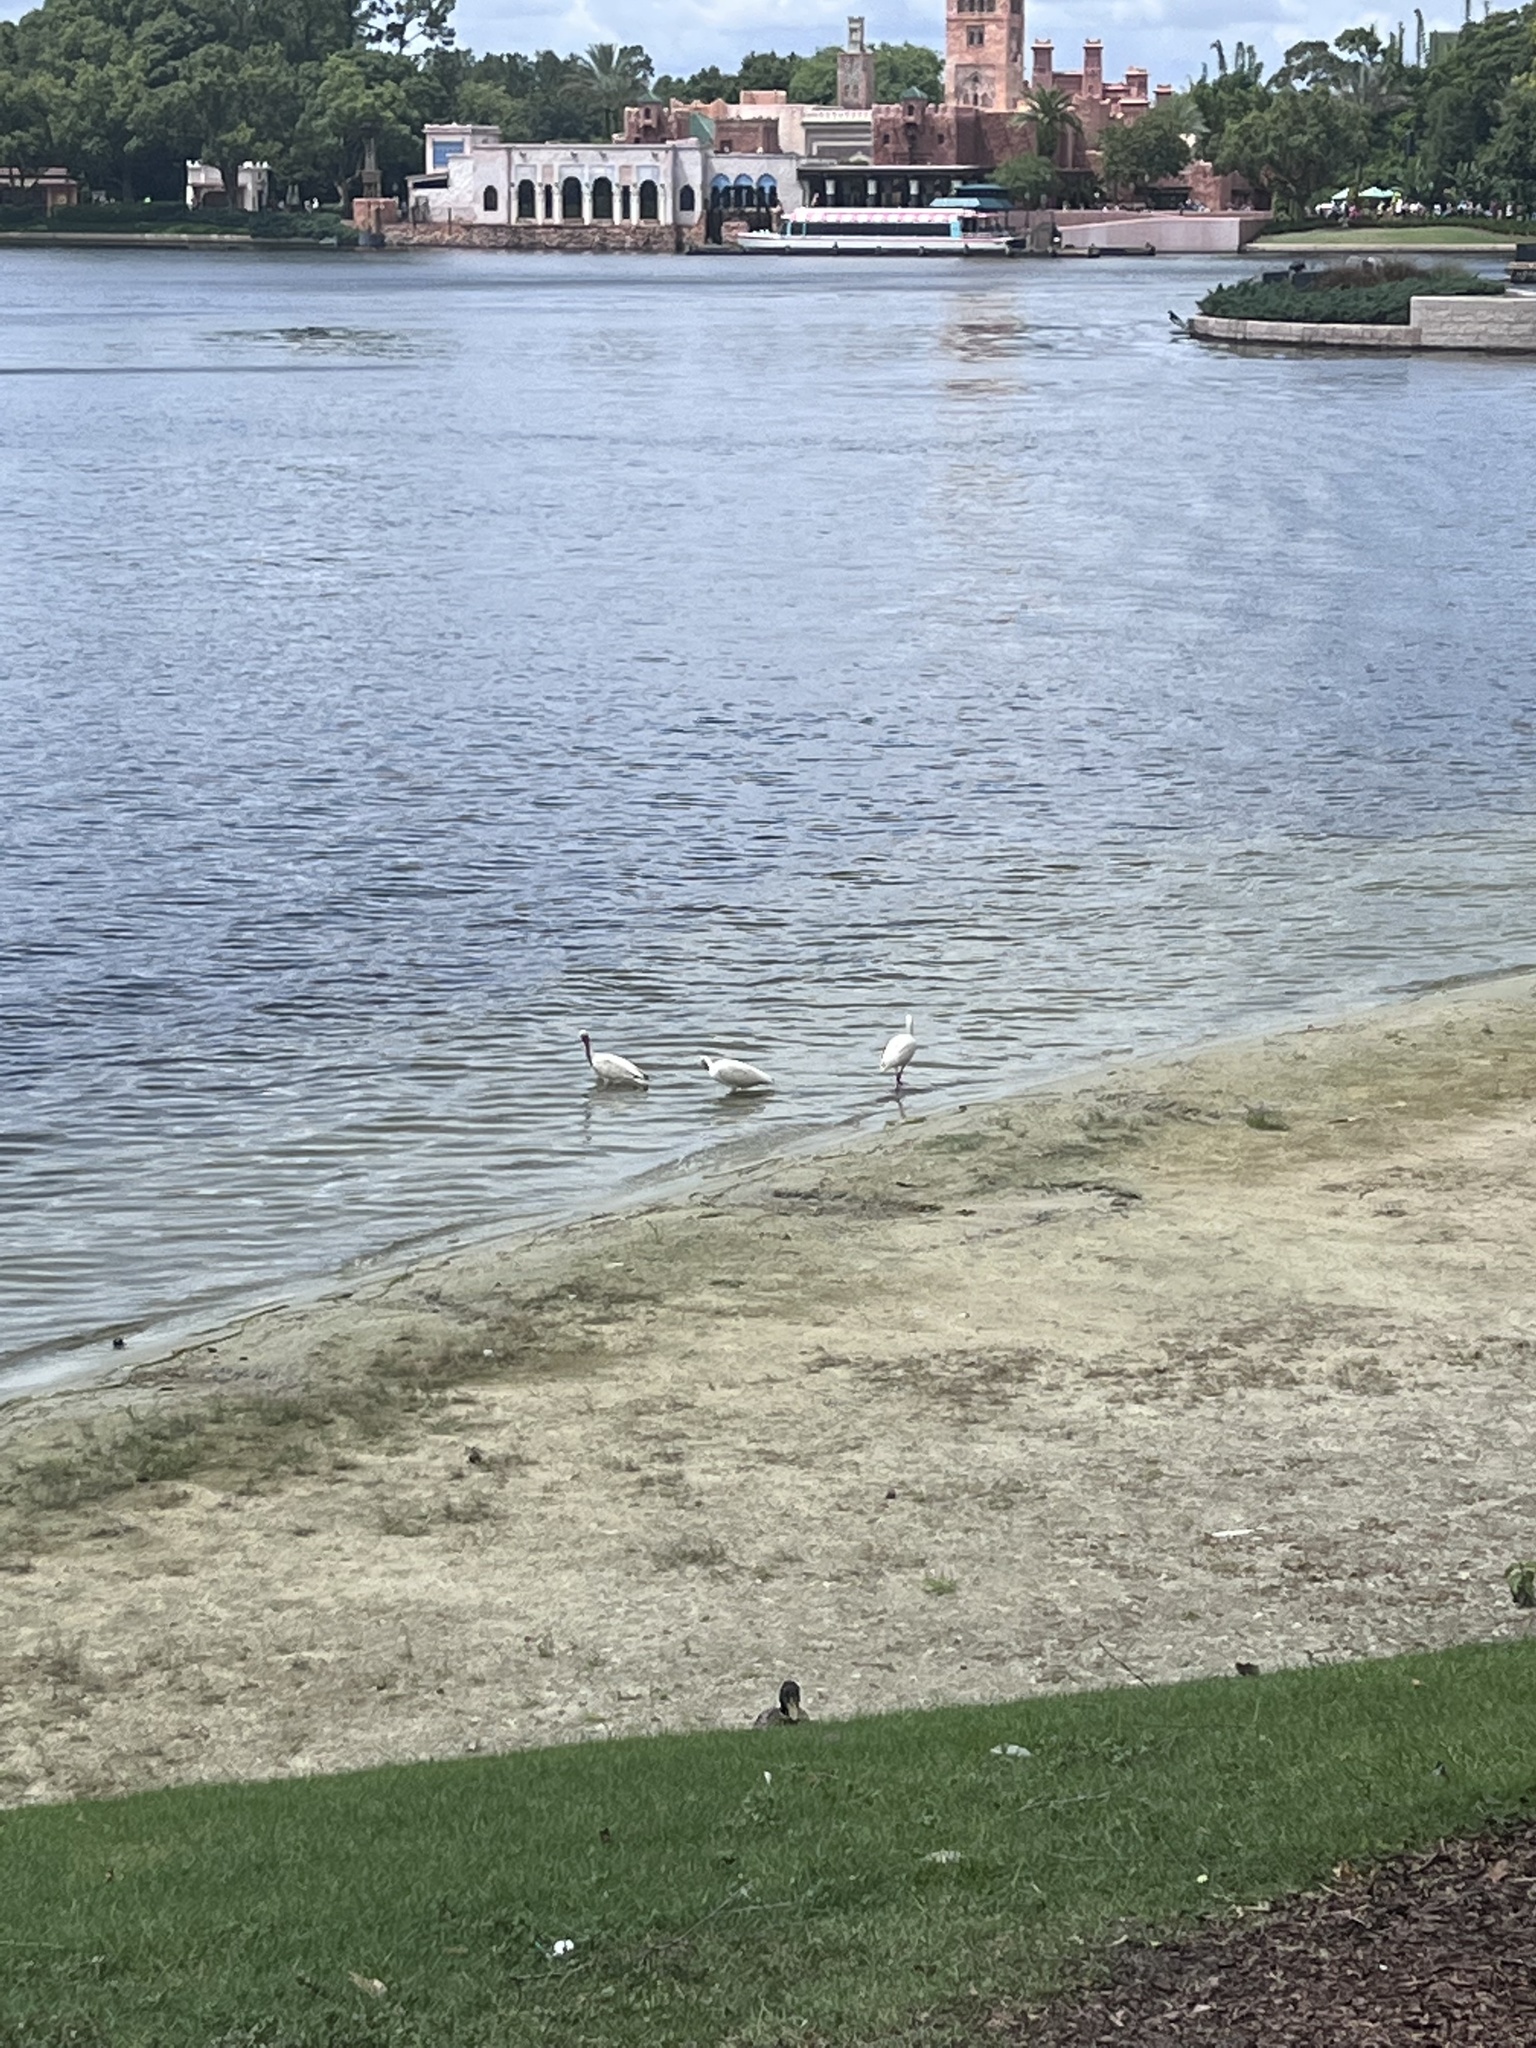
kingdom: Animalia
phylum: Chordata
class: Aves
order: Pelecaniformes
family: Threskiornithidae
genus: Eudocimus
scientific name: Eudocimus albus
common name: White ibis
